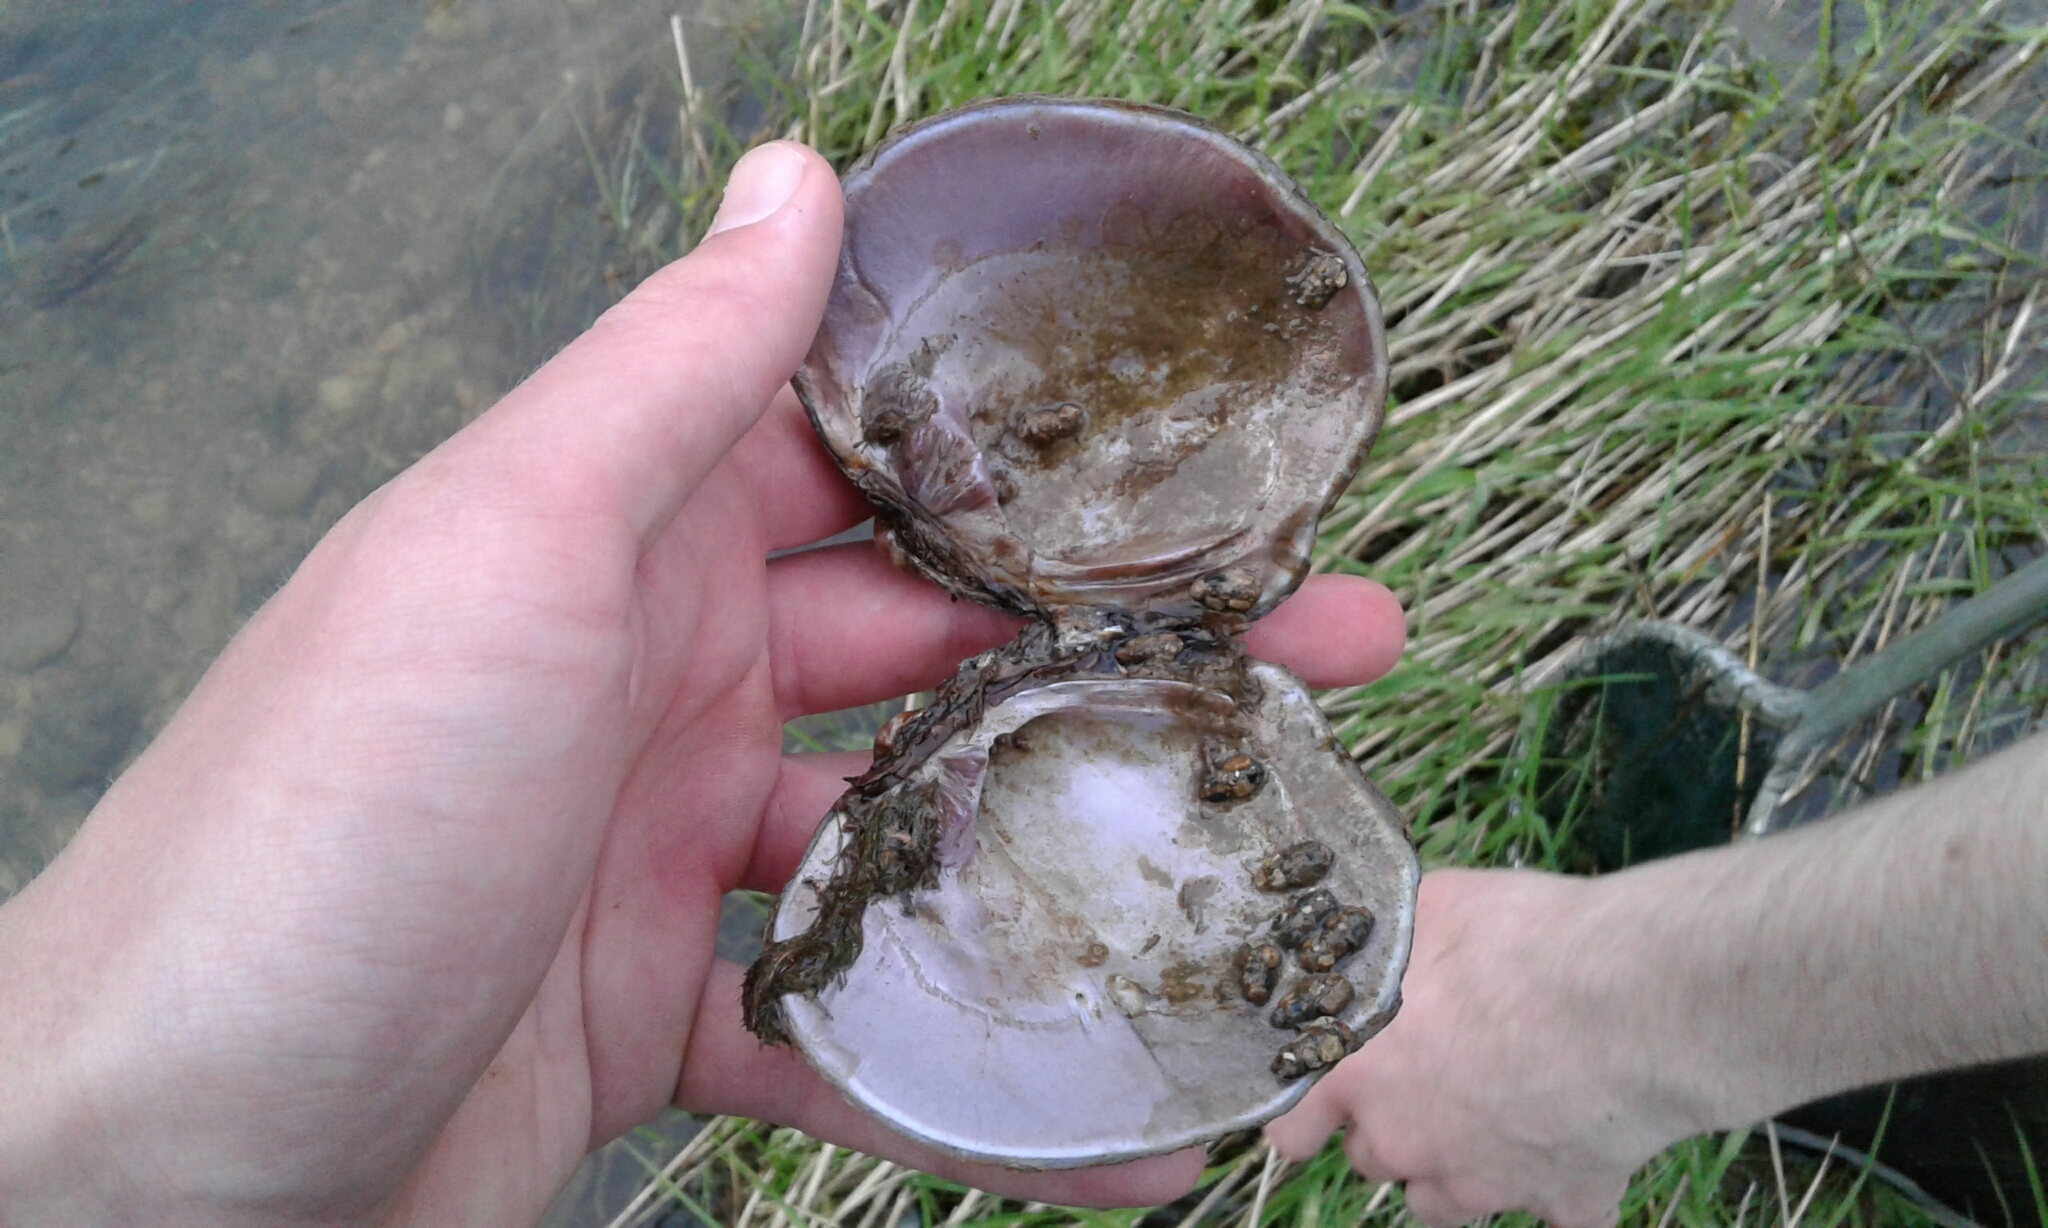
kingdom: Animalia
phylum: Mollusca
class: Bivalvia
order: Unionida
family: Unionidae
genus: Cyclonaias
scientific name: Cyclonaias tuberculata
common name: Purple wartyback
